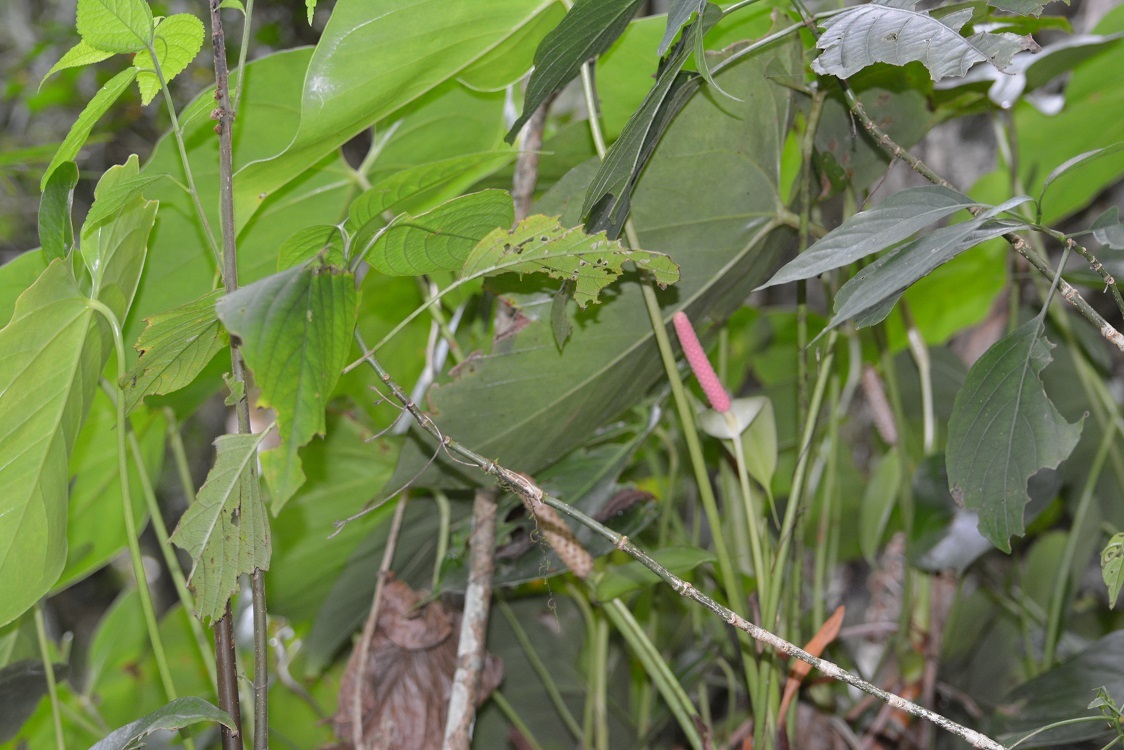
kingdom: Plantae
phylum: Tracheophyta
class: Liliopsida
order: Alismatales
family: Araceae
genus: Anthurium
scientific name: Anthurium huixtlense
